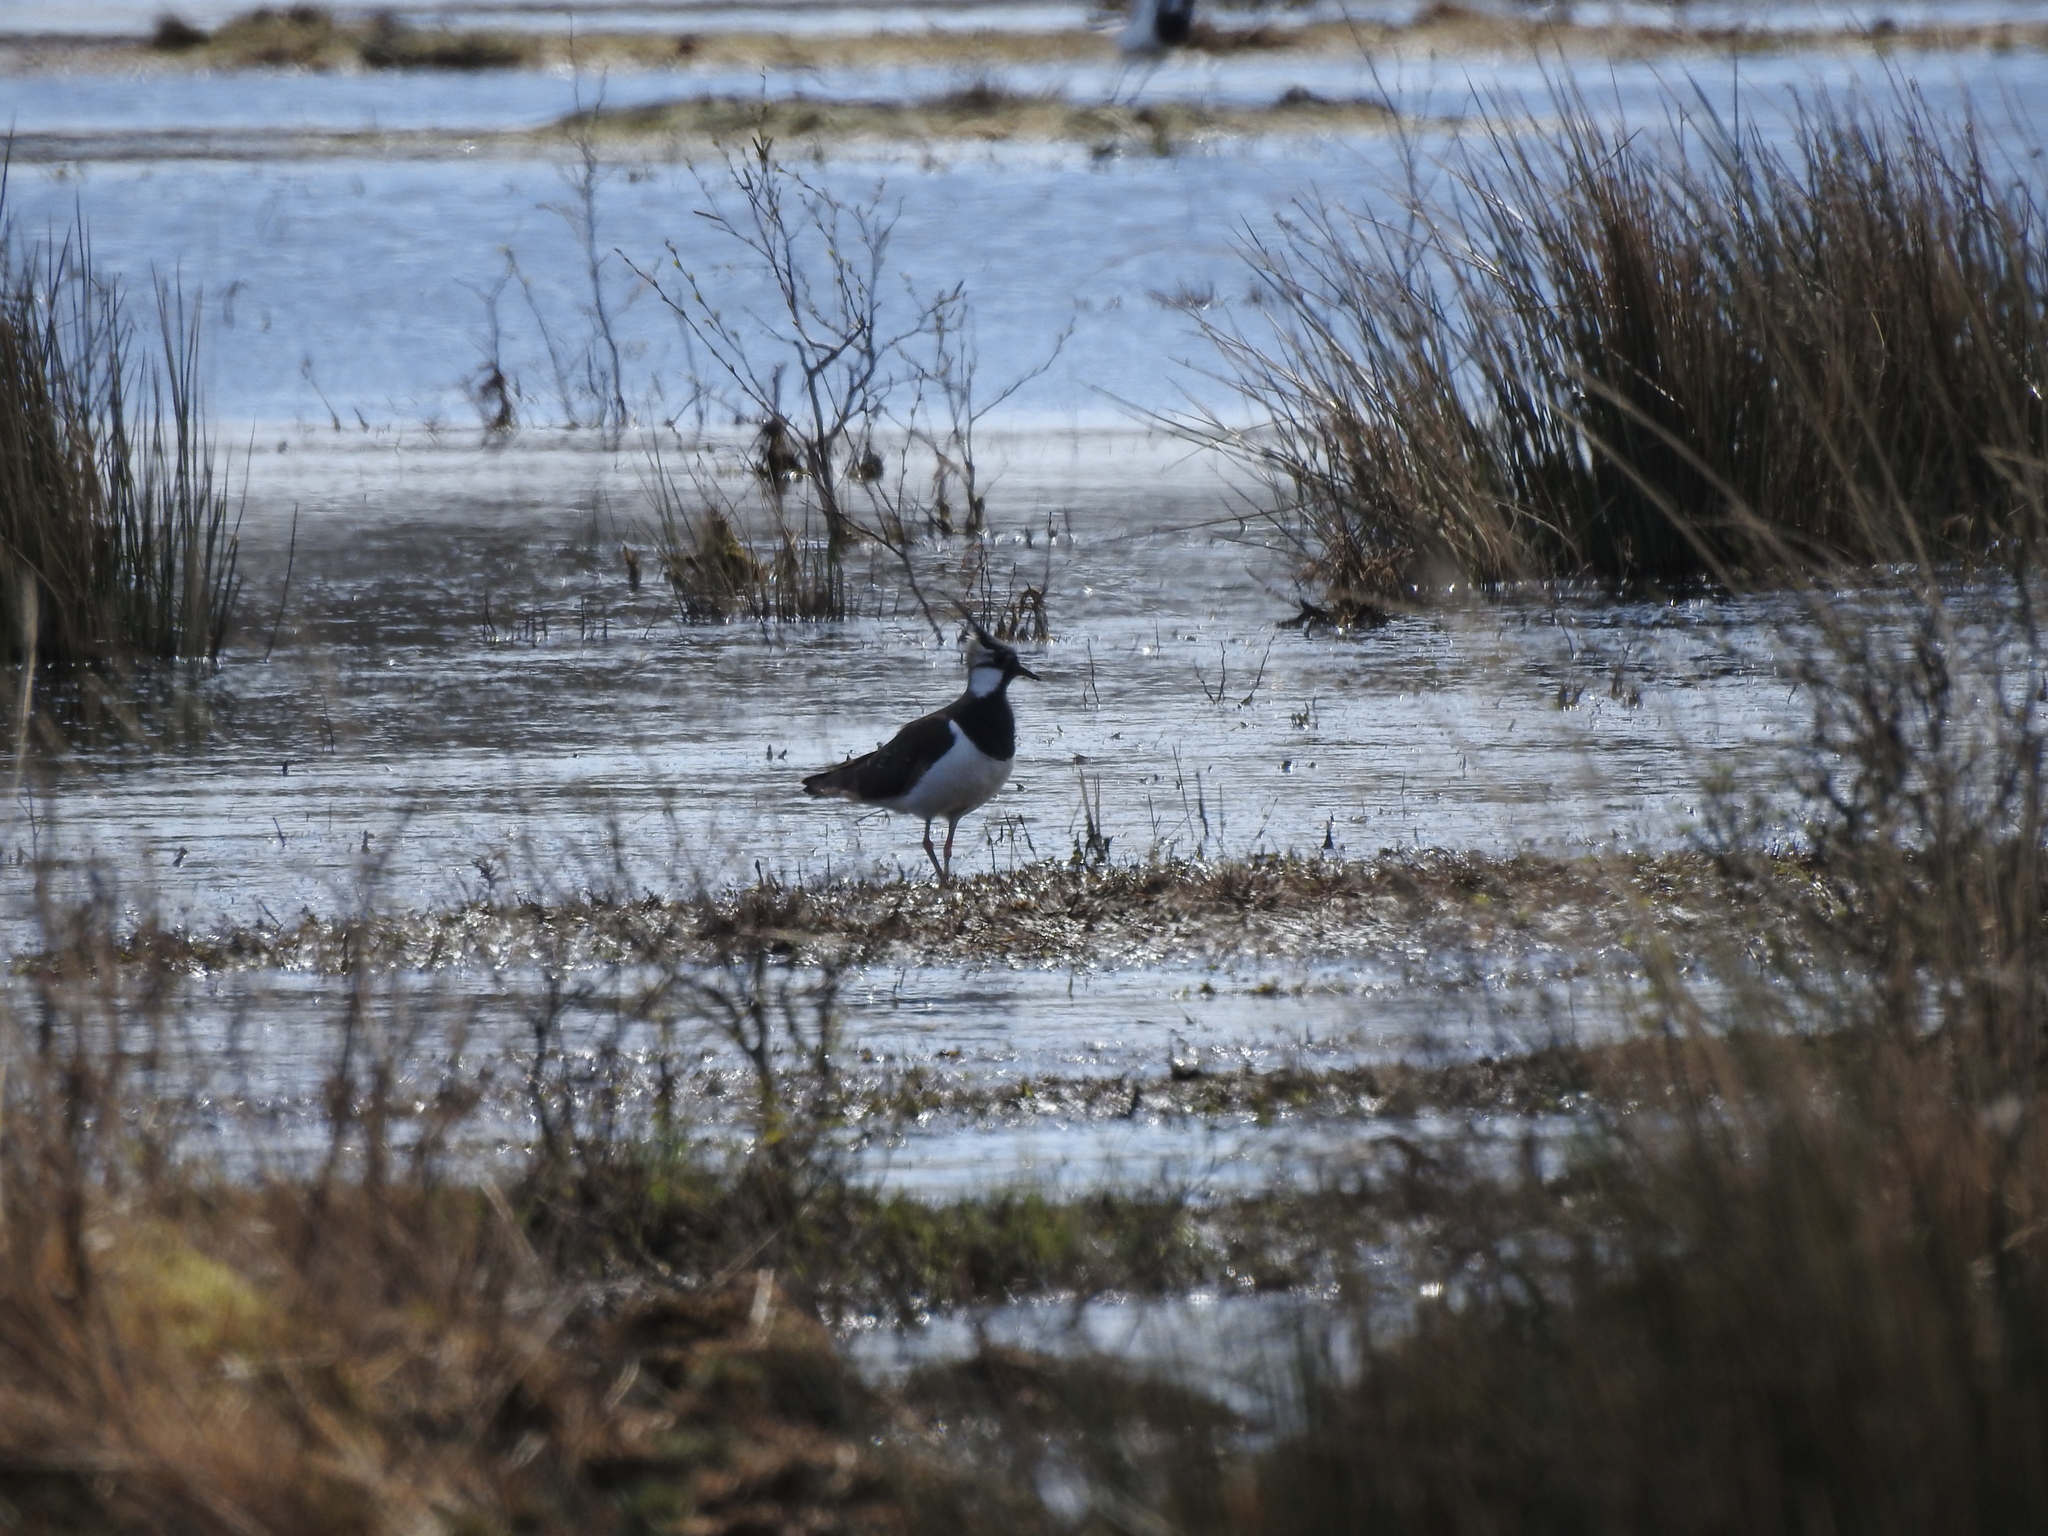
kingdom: Animalia
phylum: Chordata
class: Aves
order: Charadriiformes
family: Charadriidae
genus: Vanellus
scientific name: Vanellus vanellus
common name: Northern lapwing
